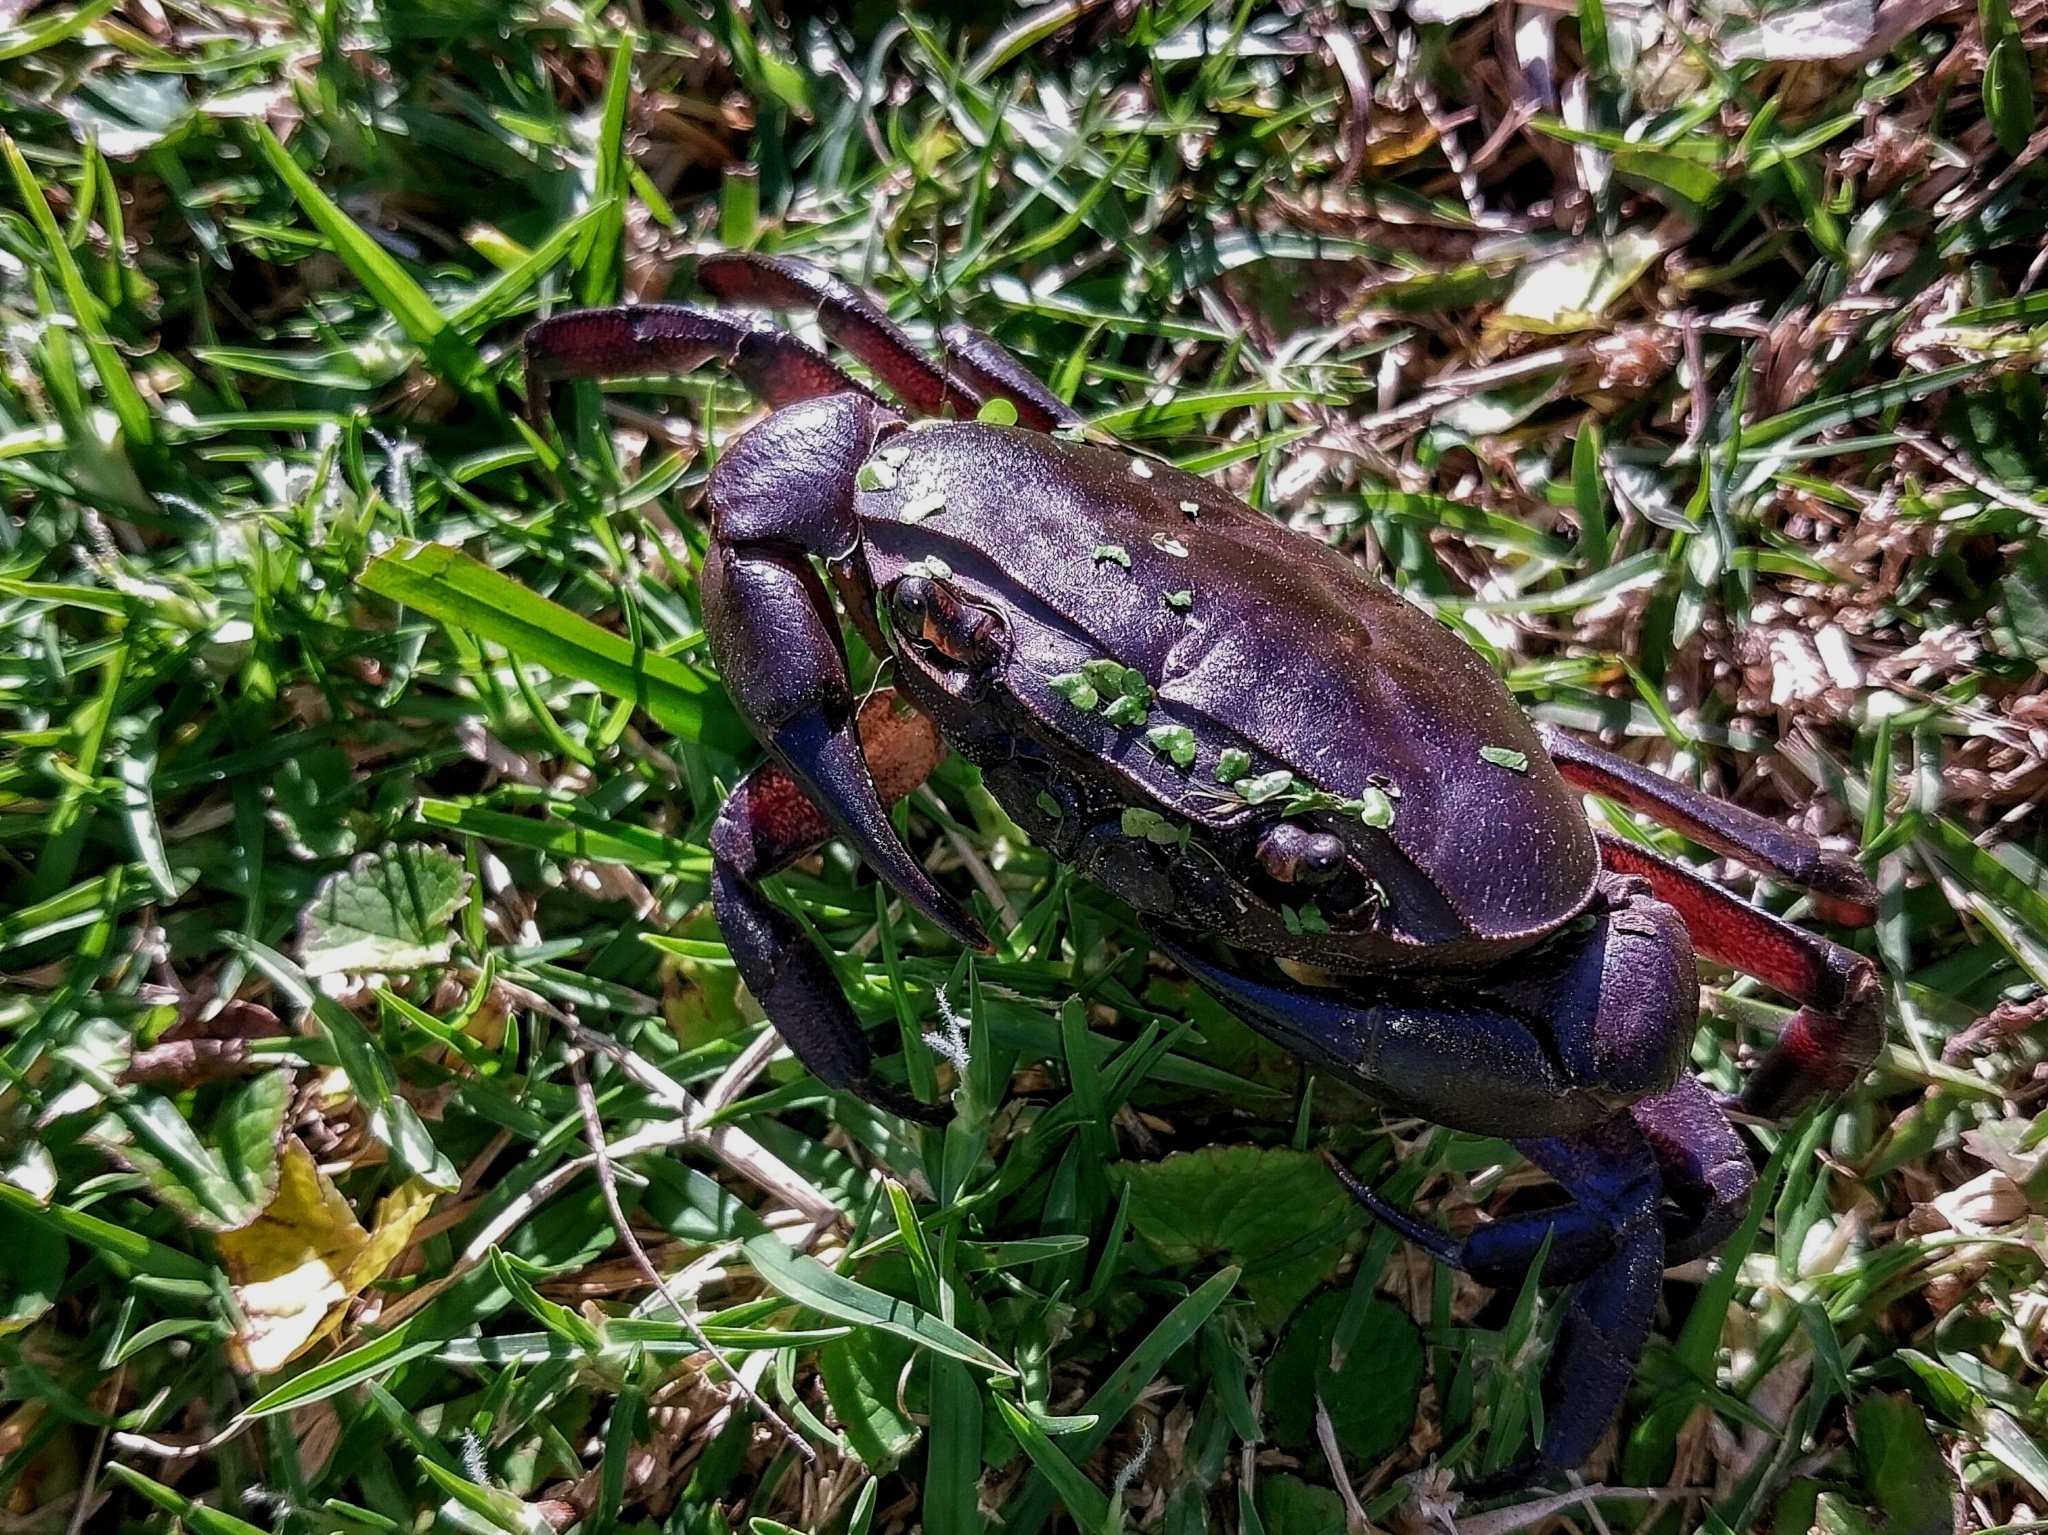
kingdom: Animalia
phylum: Arthropoda
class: Malacostraca
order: Decapoda
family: Potamonautidae
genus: Potamonautes
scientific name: Potamonautes barbarai
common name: Barbara's crab
